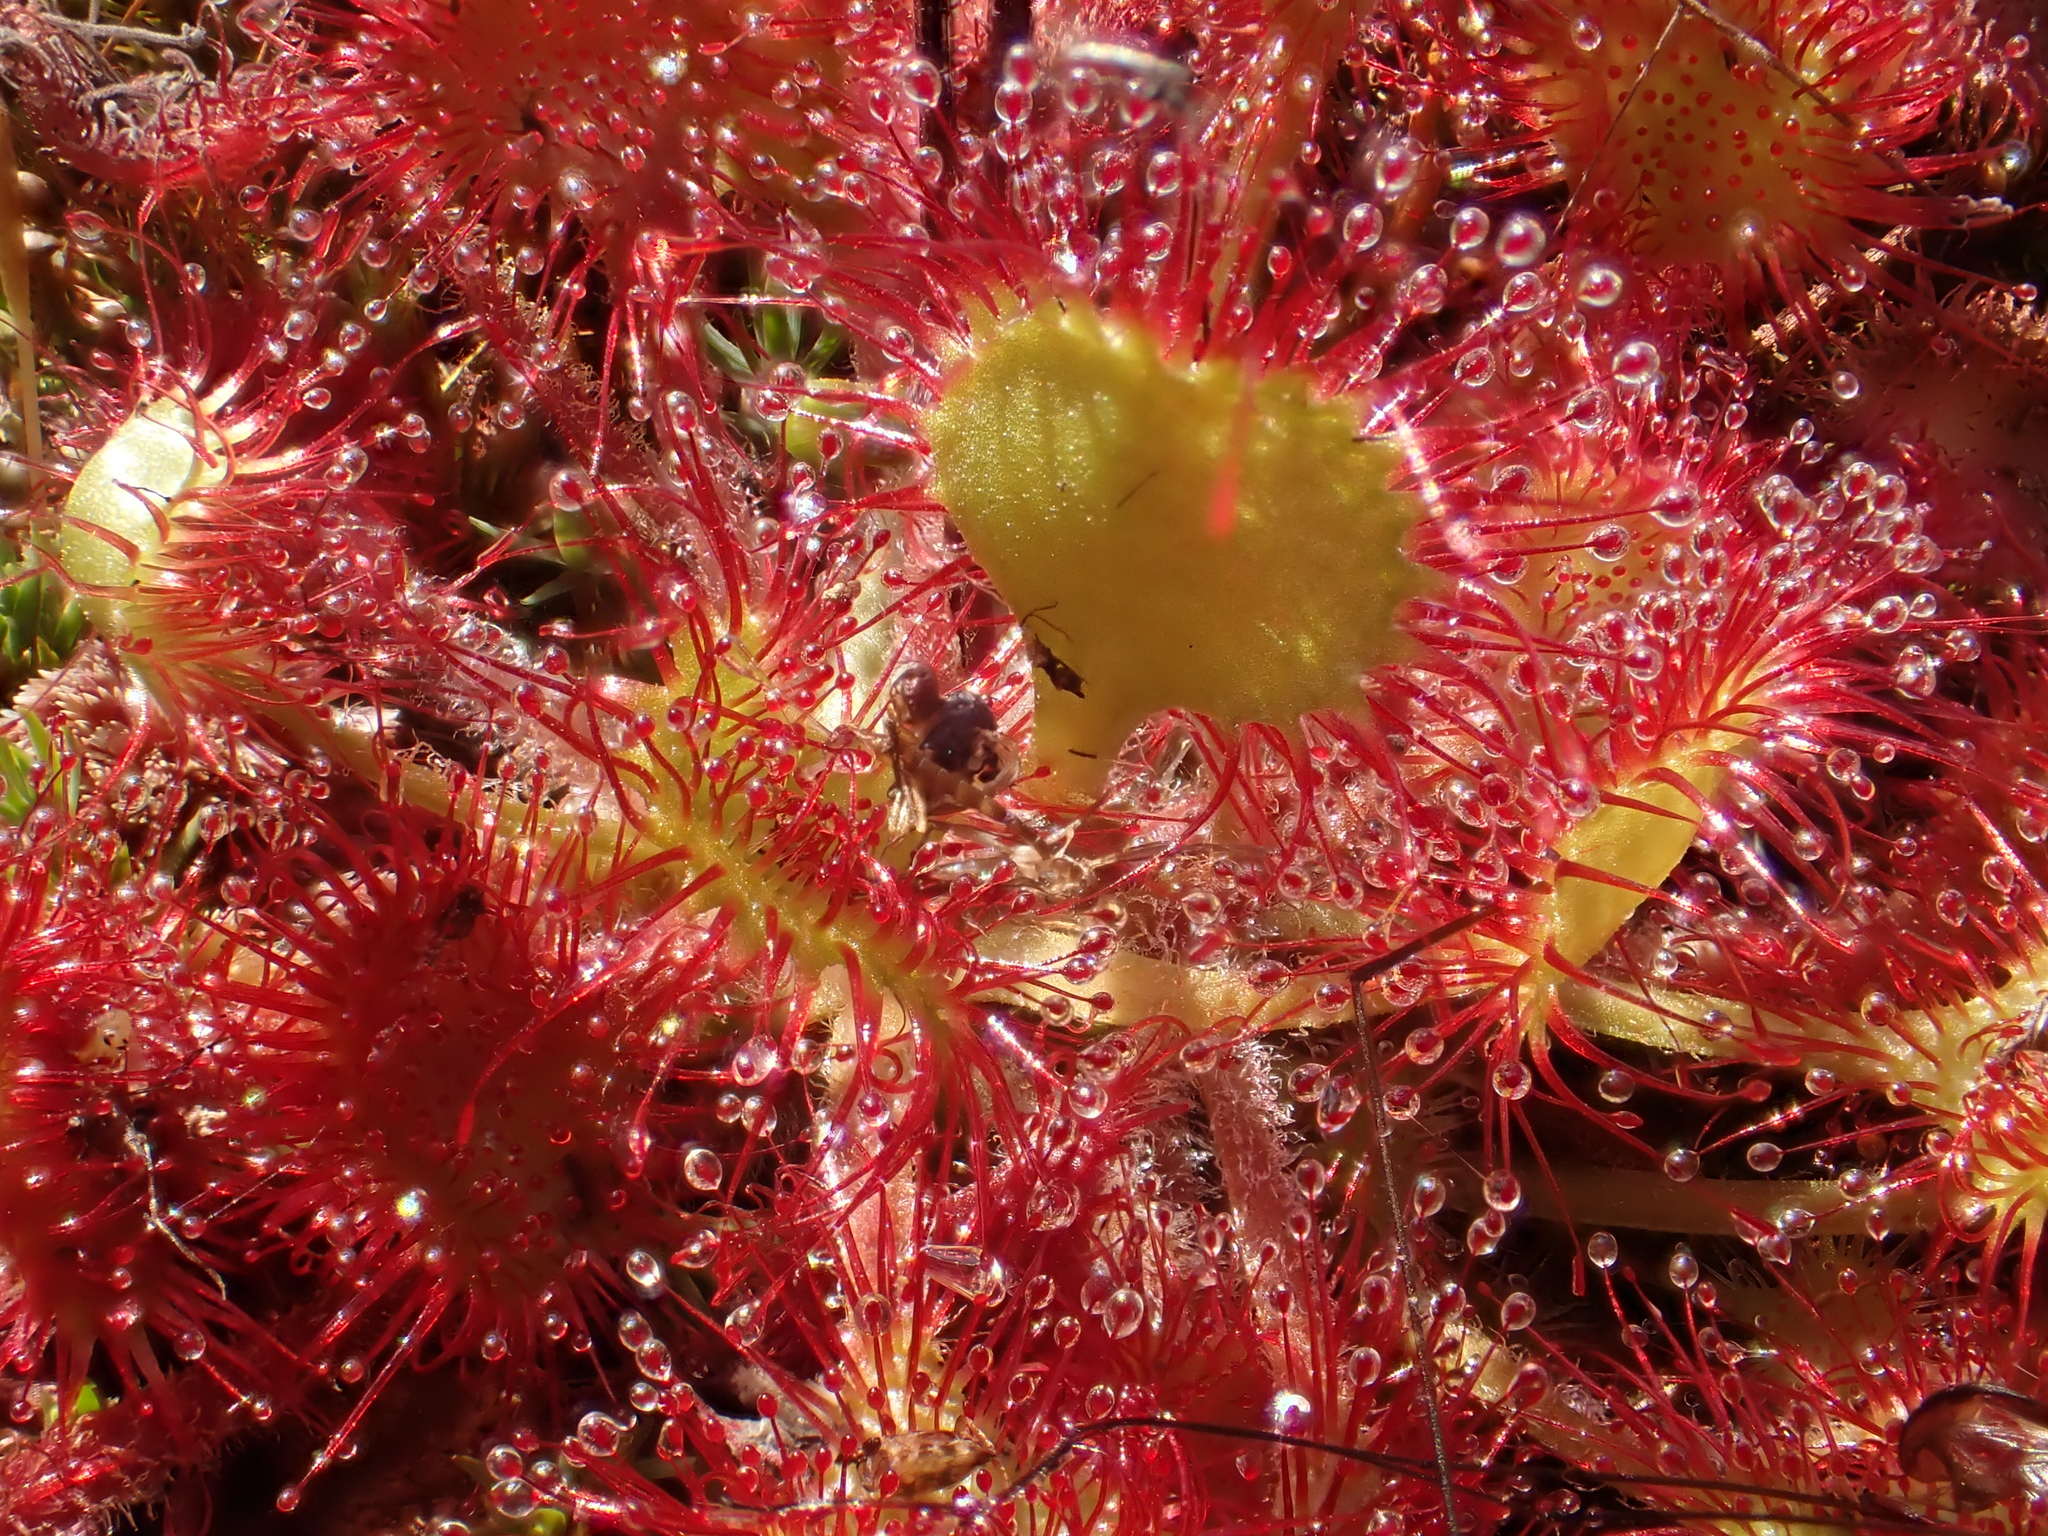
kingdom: Plantae
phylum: Tracheophyta
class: Magnoliopsida
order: Caryophyllales
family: Droseraceae
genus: Drosera
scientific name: Drosera rotundifolia
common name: Round-leaved sundew
